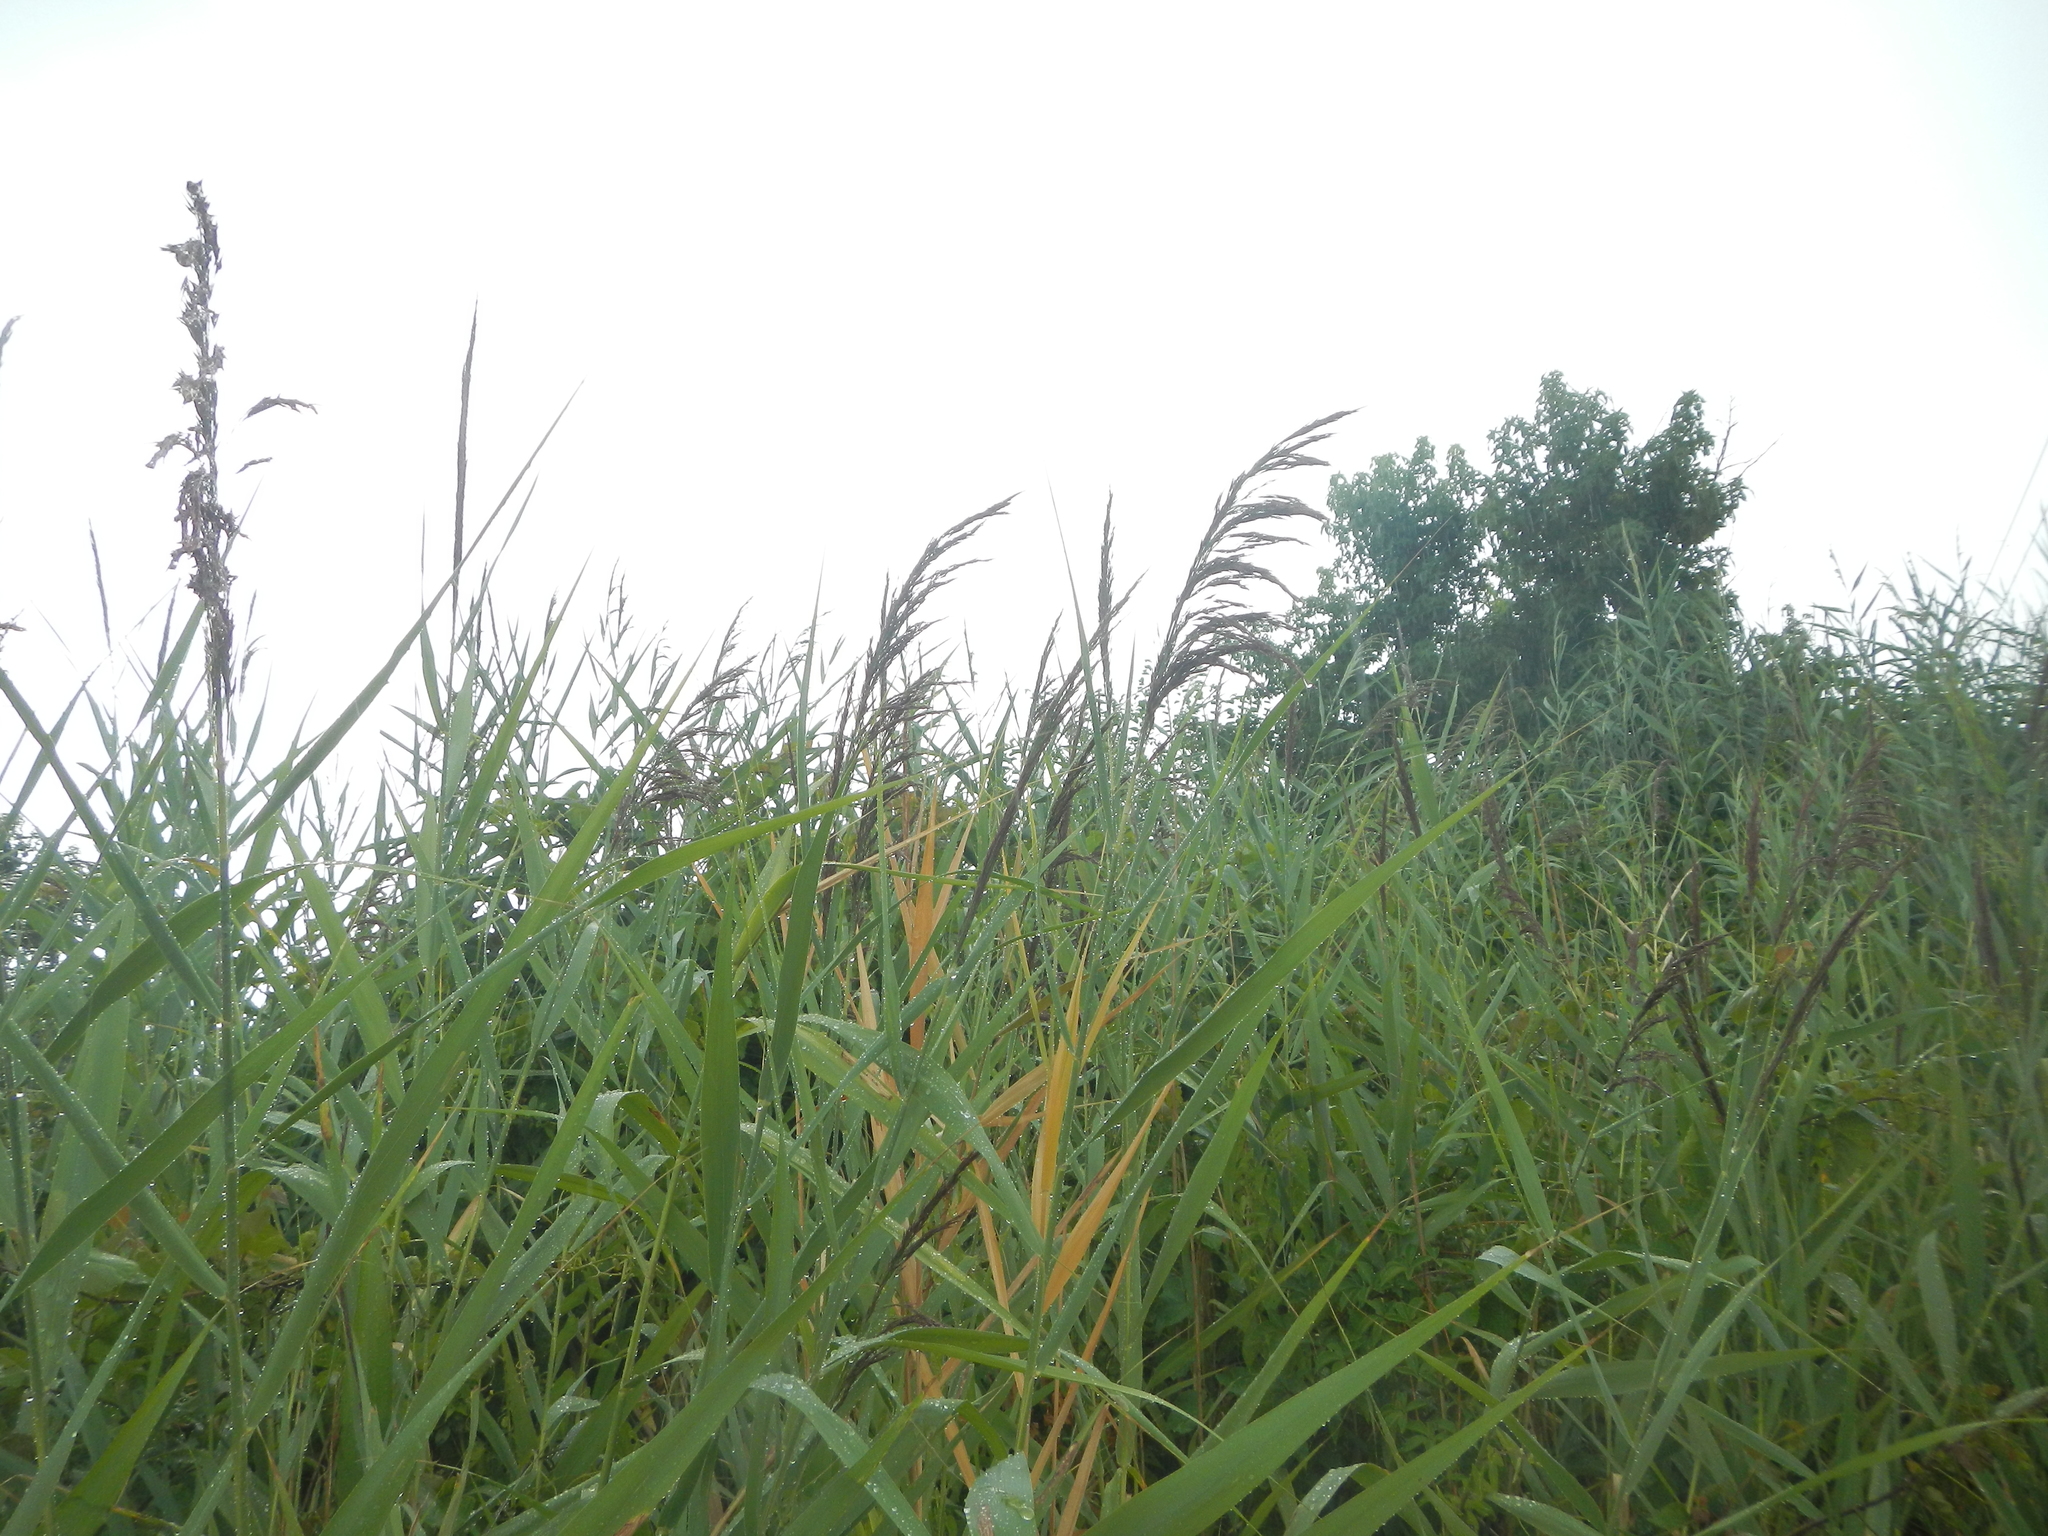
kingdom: Plantae
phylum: Tracheophyta
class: Liliopsida
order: Poales
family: Poaceae
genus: Phragmites
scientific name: Phragmites australis
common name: Common reed
